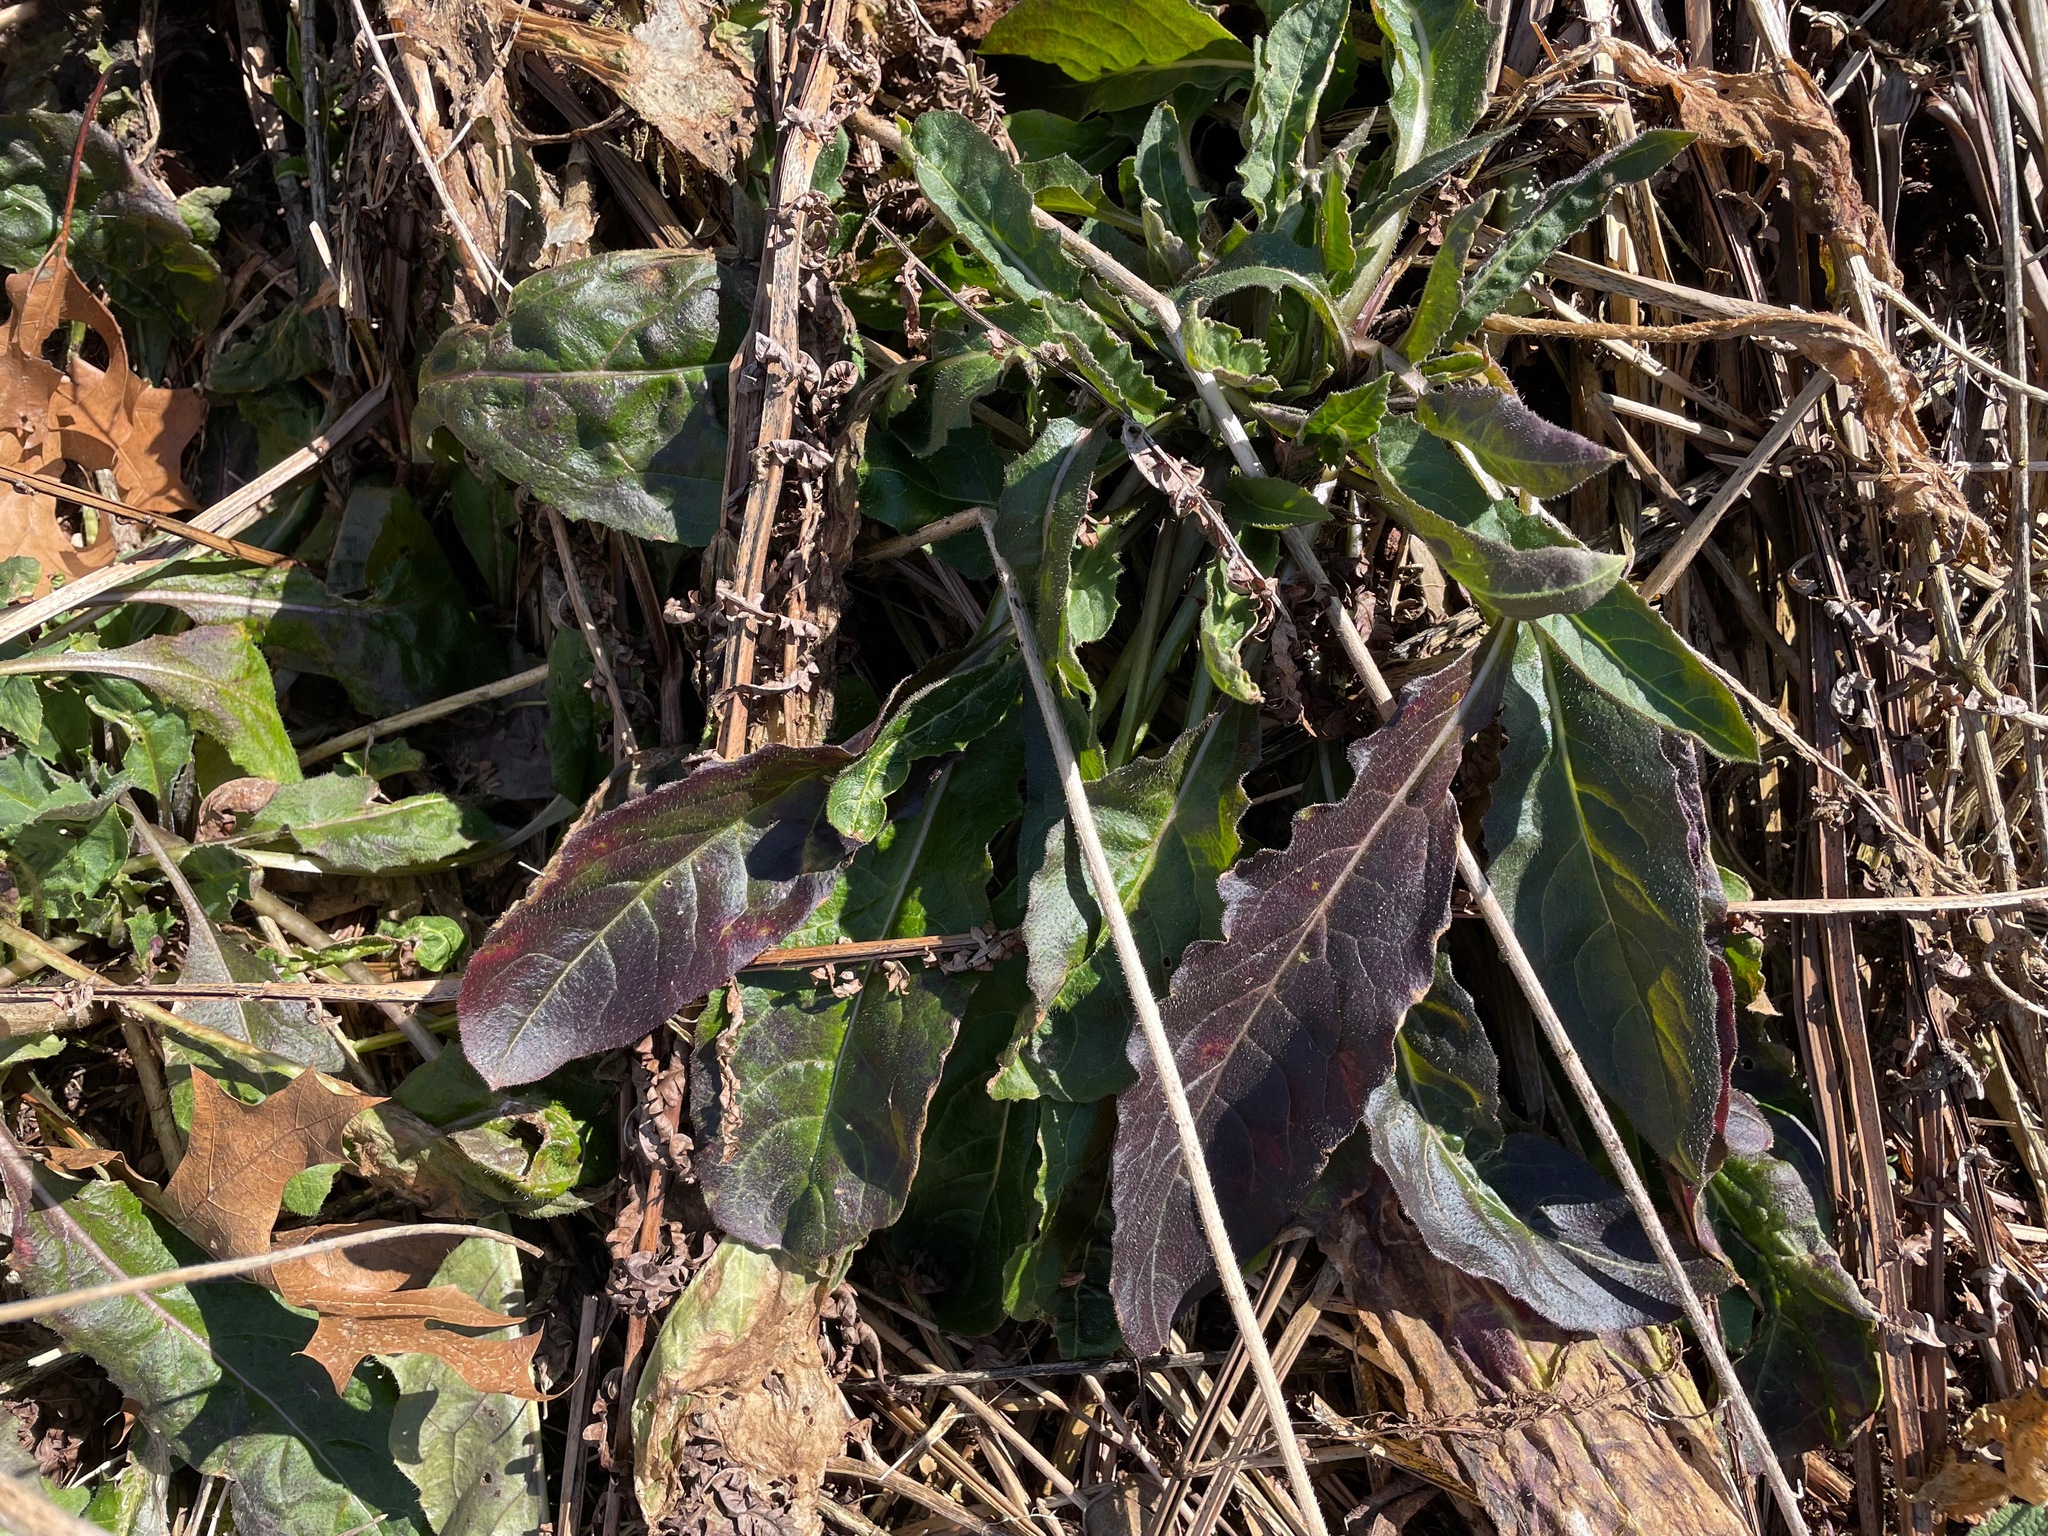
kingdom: Plantae
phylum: Tracheophyta
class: Magnoliopsida
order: Brassicales
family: Brassicaceae
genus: Hesperis
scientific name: Hesperis matronalis
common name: Dame's-violet
